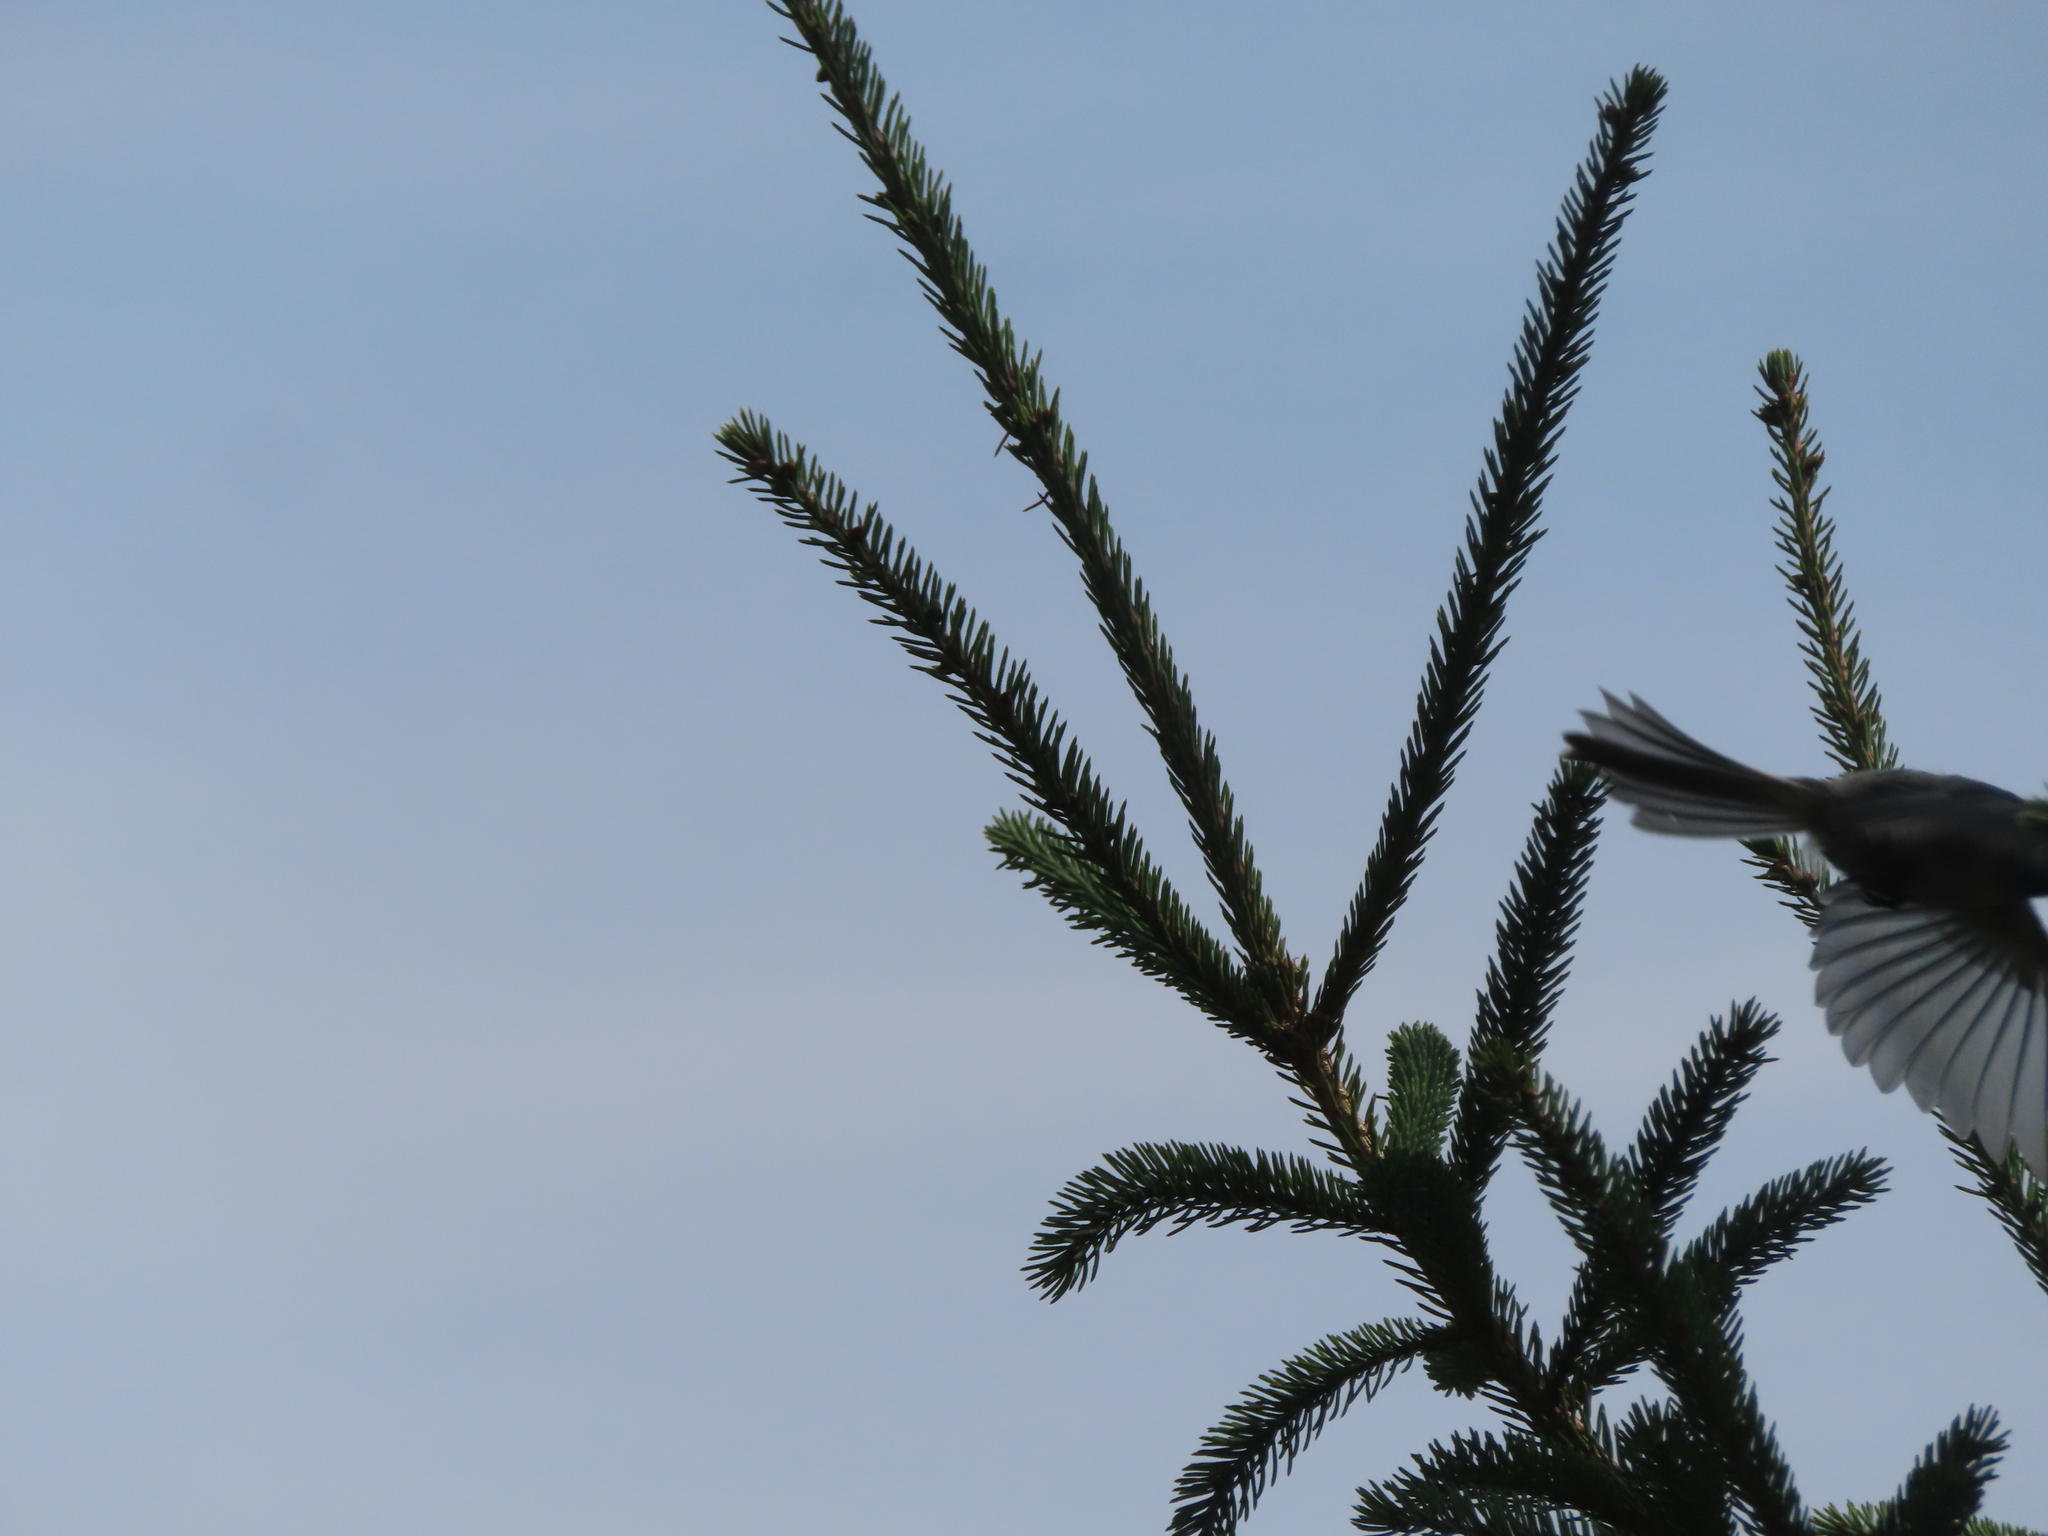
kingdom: Animalia
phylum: Chordata
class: Aves
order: Passeriformes
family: Paridae
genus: Poecile
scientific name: Poecile atricapillus
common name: Black-capped chickadee
